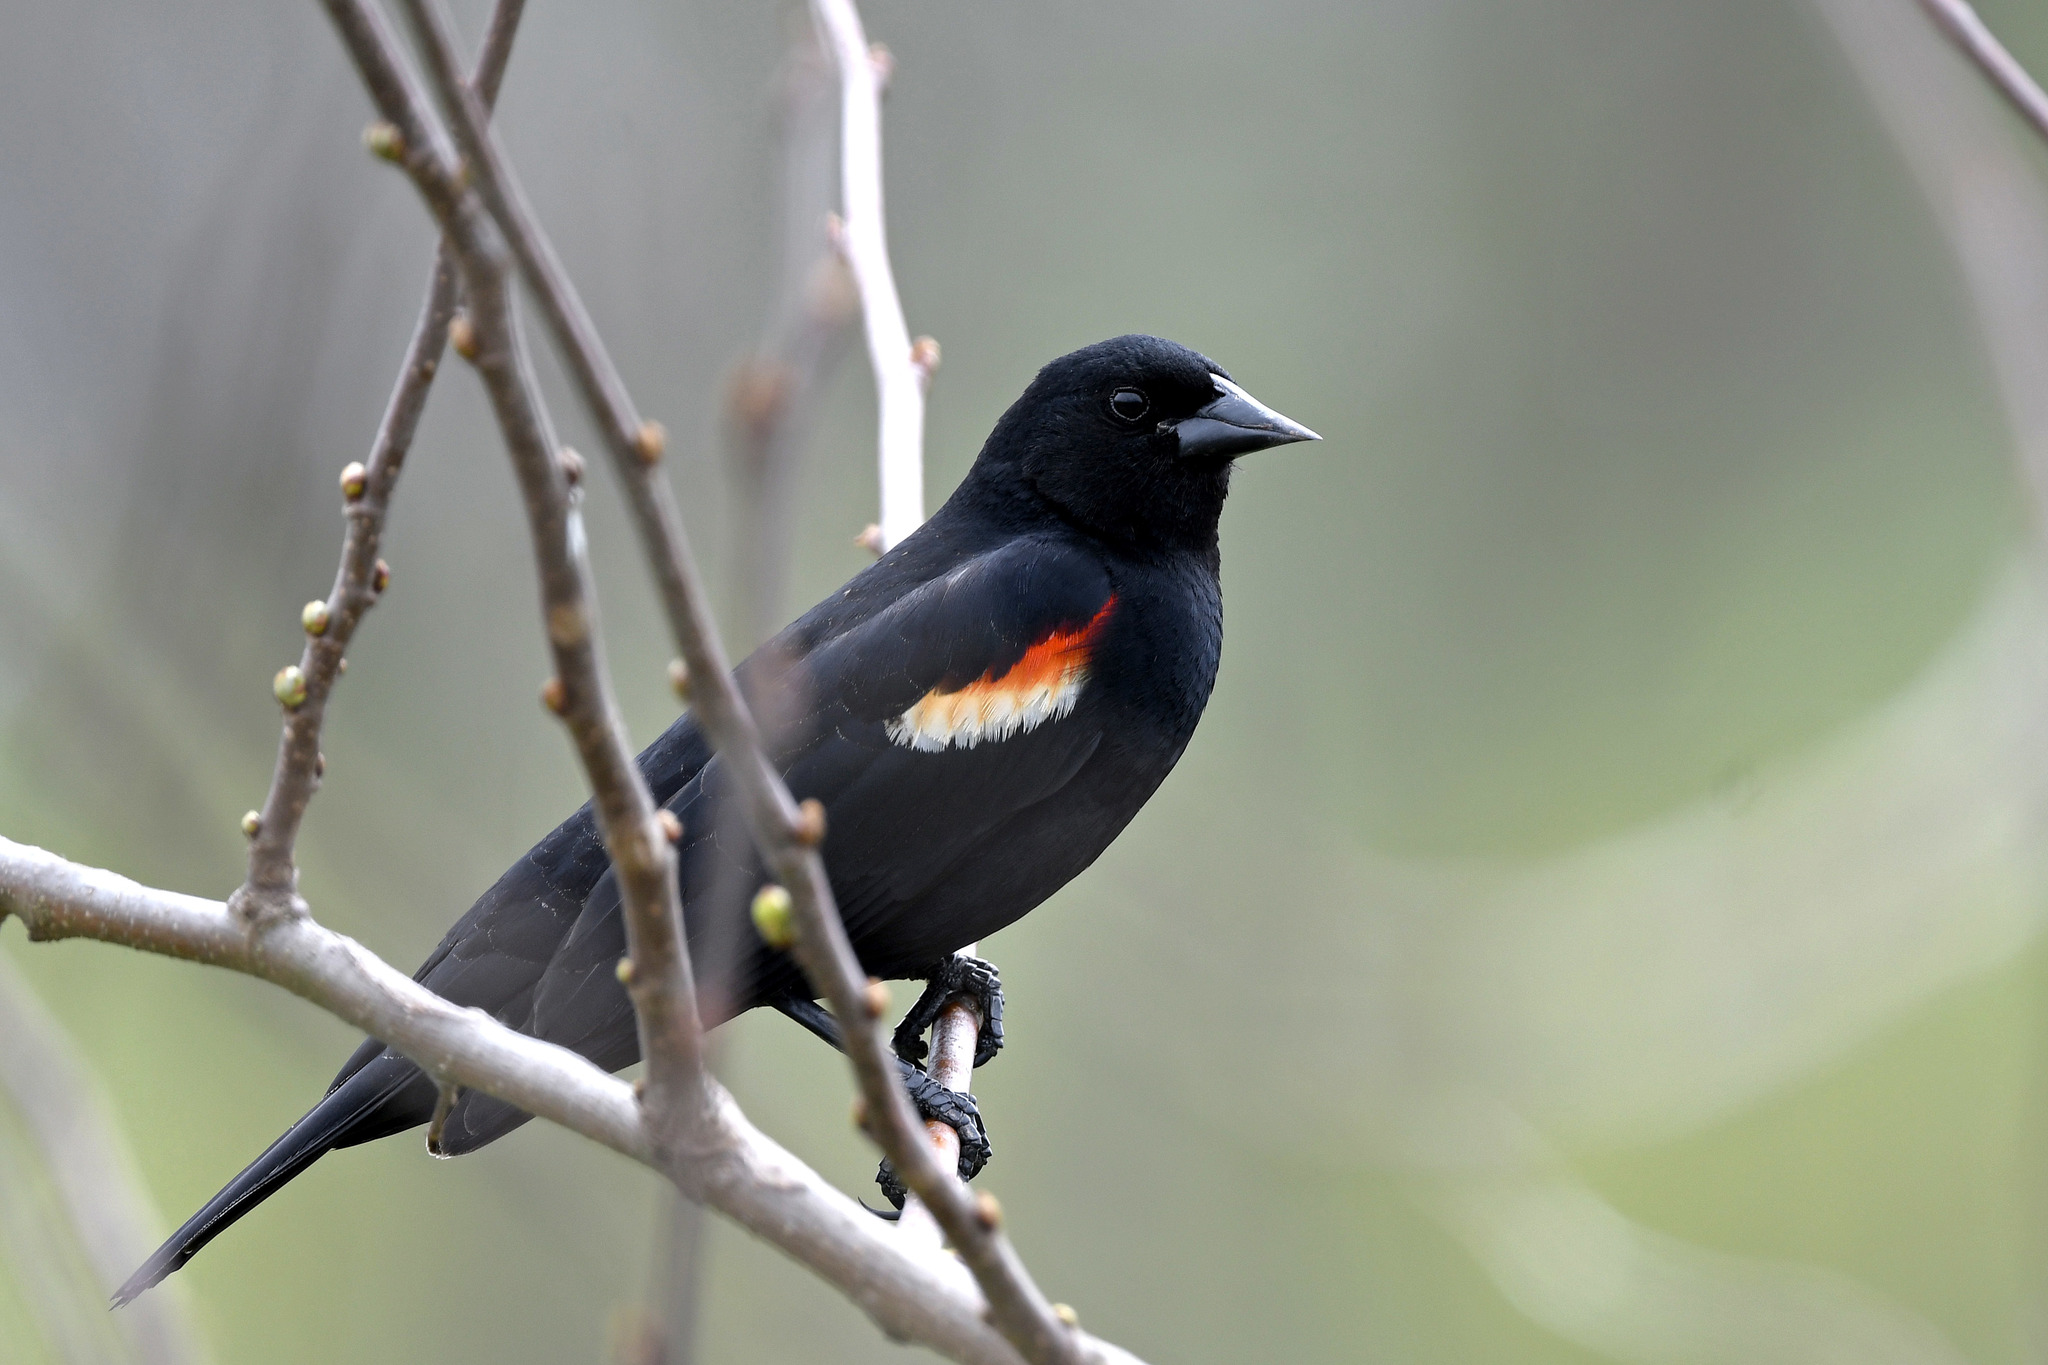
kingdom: Animalia
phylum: Chordata
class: Aves
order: Passeriformes
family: Icteridae
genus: Agelaius
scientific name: Agelaius phoeniceus
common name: Red-winged blackbird
